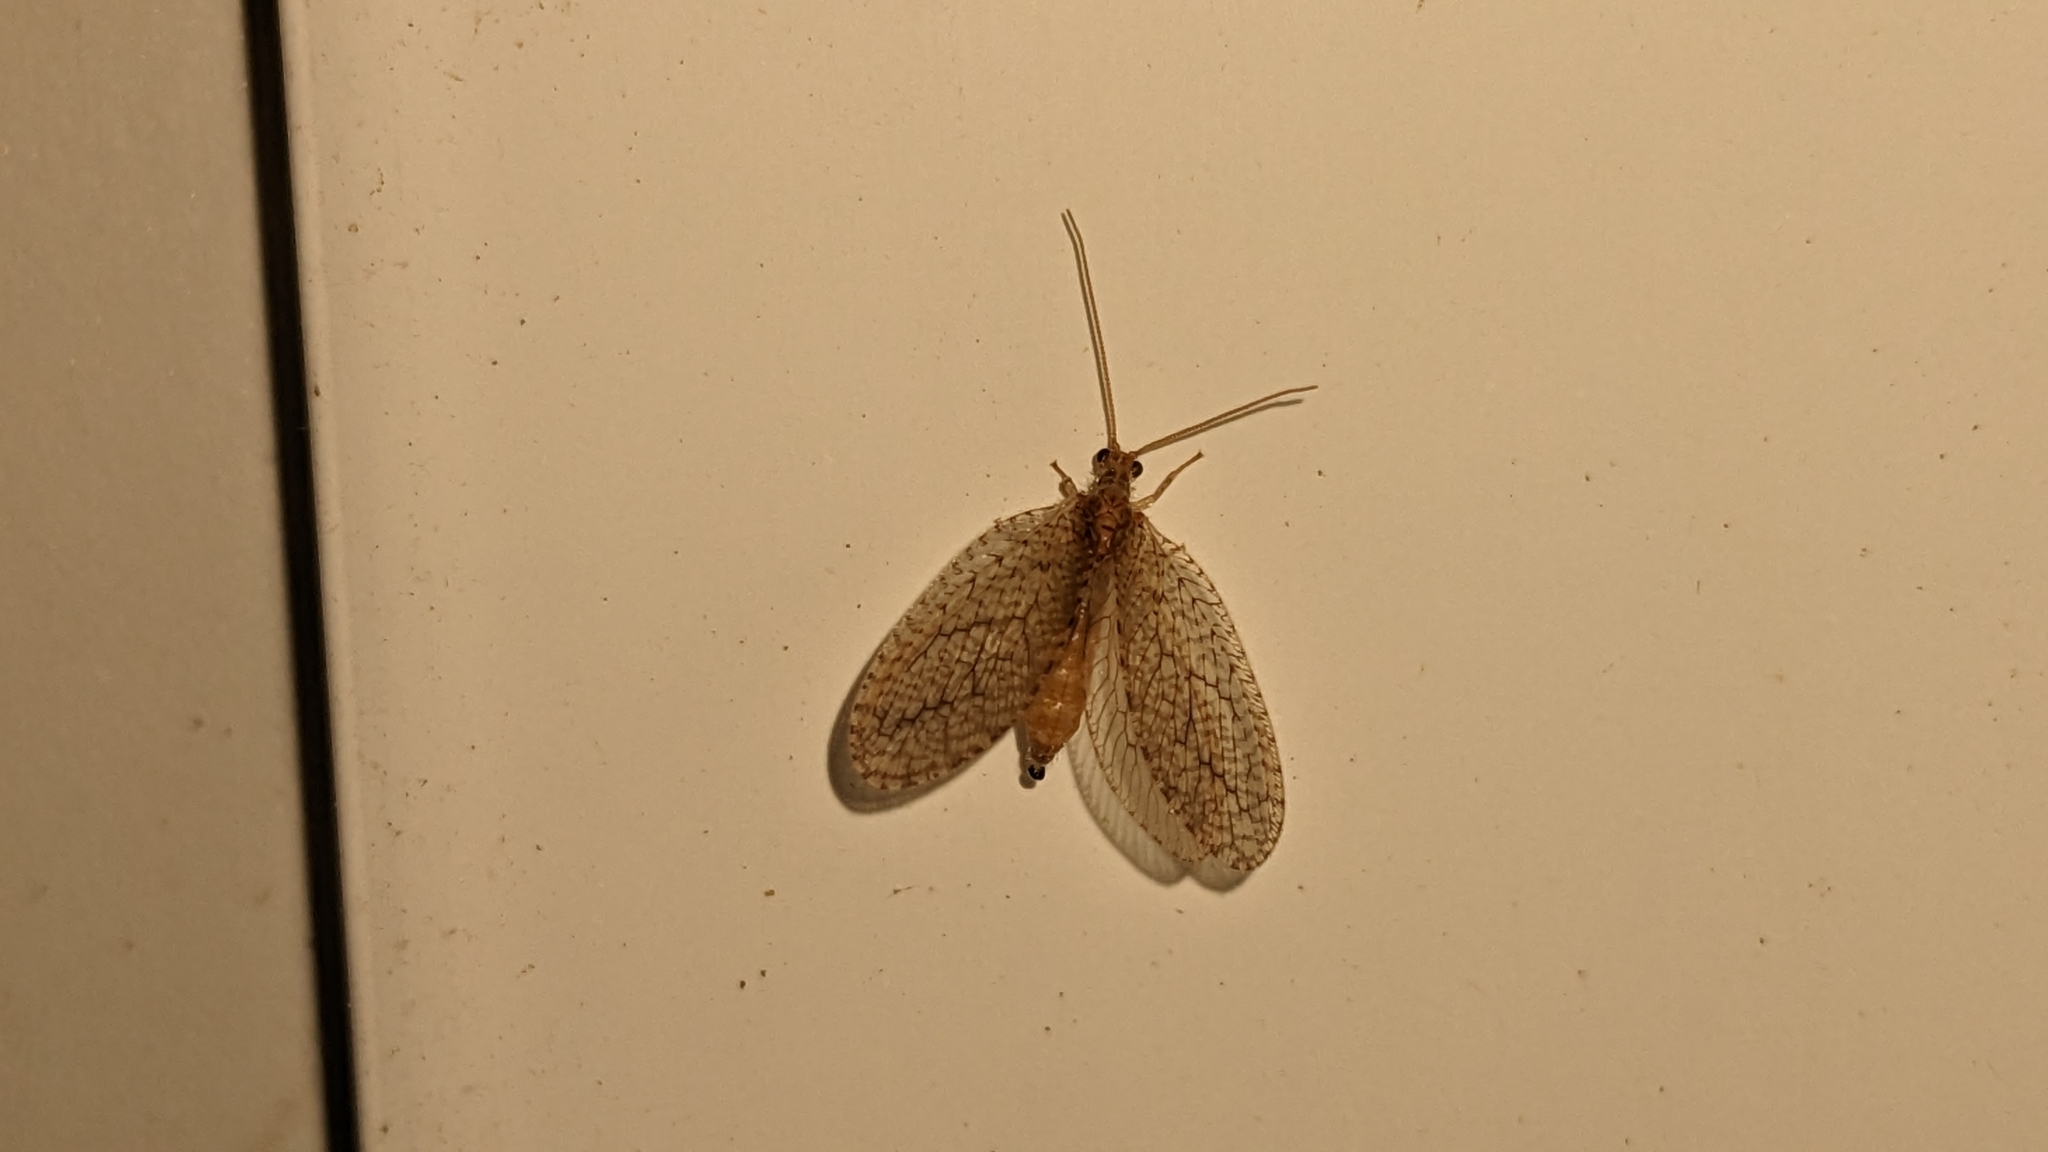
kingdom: Animalia
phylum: Arthropoda
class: Insecta
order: Neuroptera
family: Hemerobiidae
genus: Micromus
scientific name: Micromus posticus
